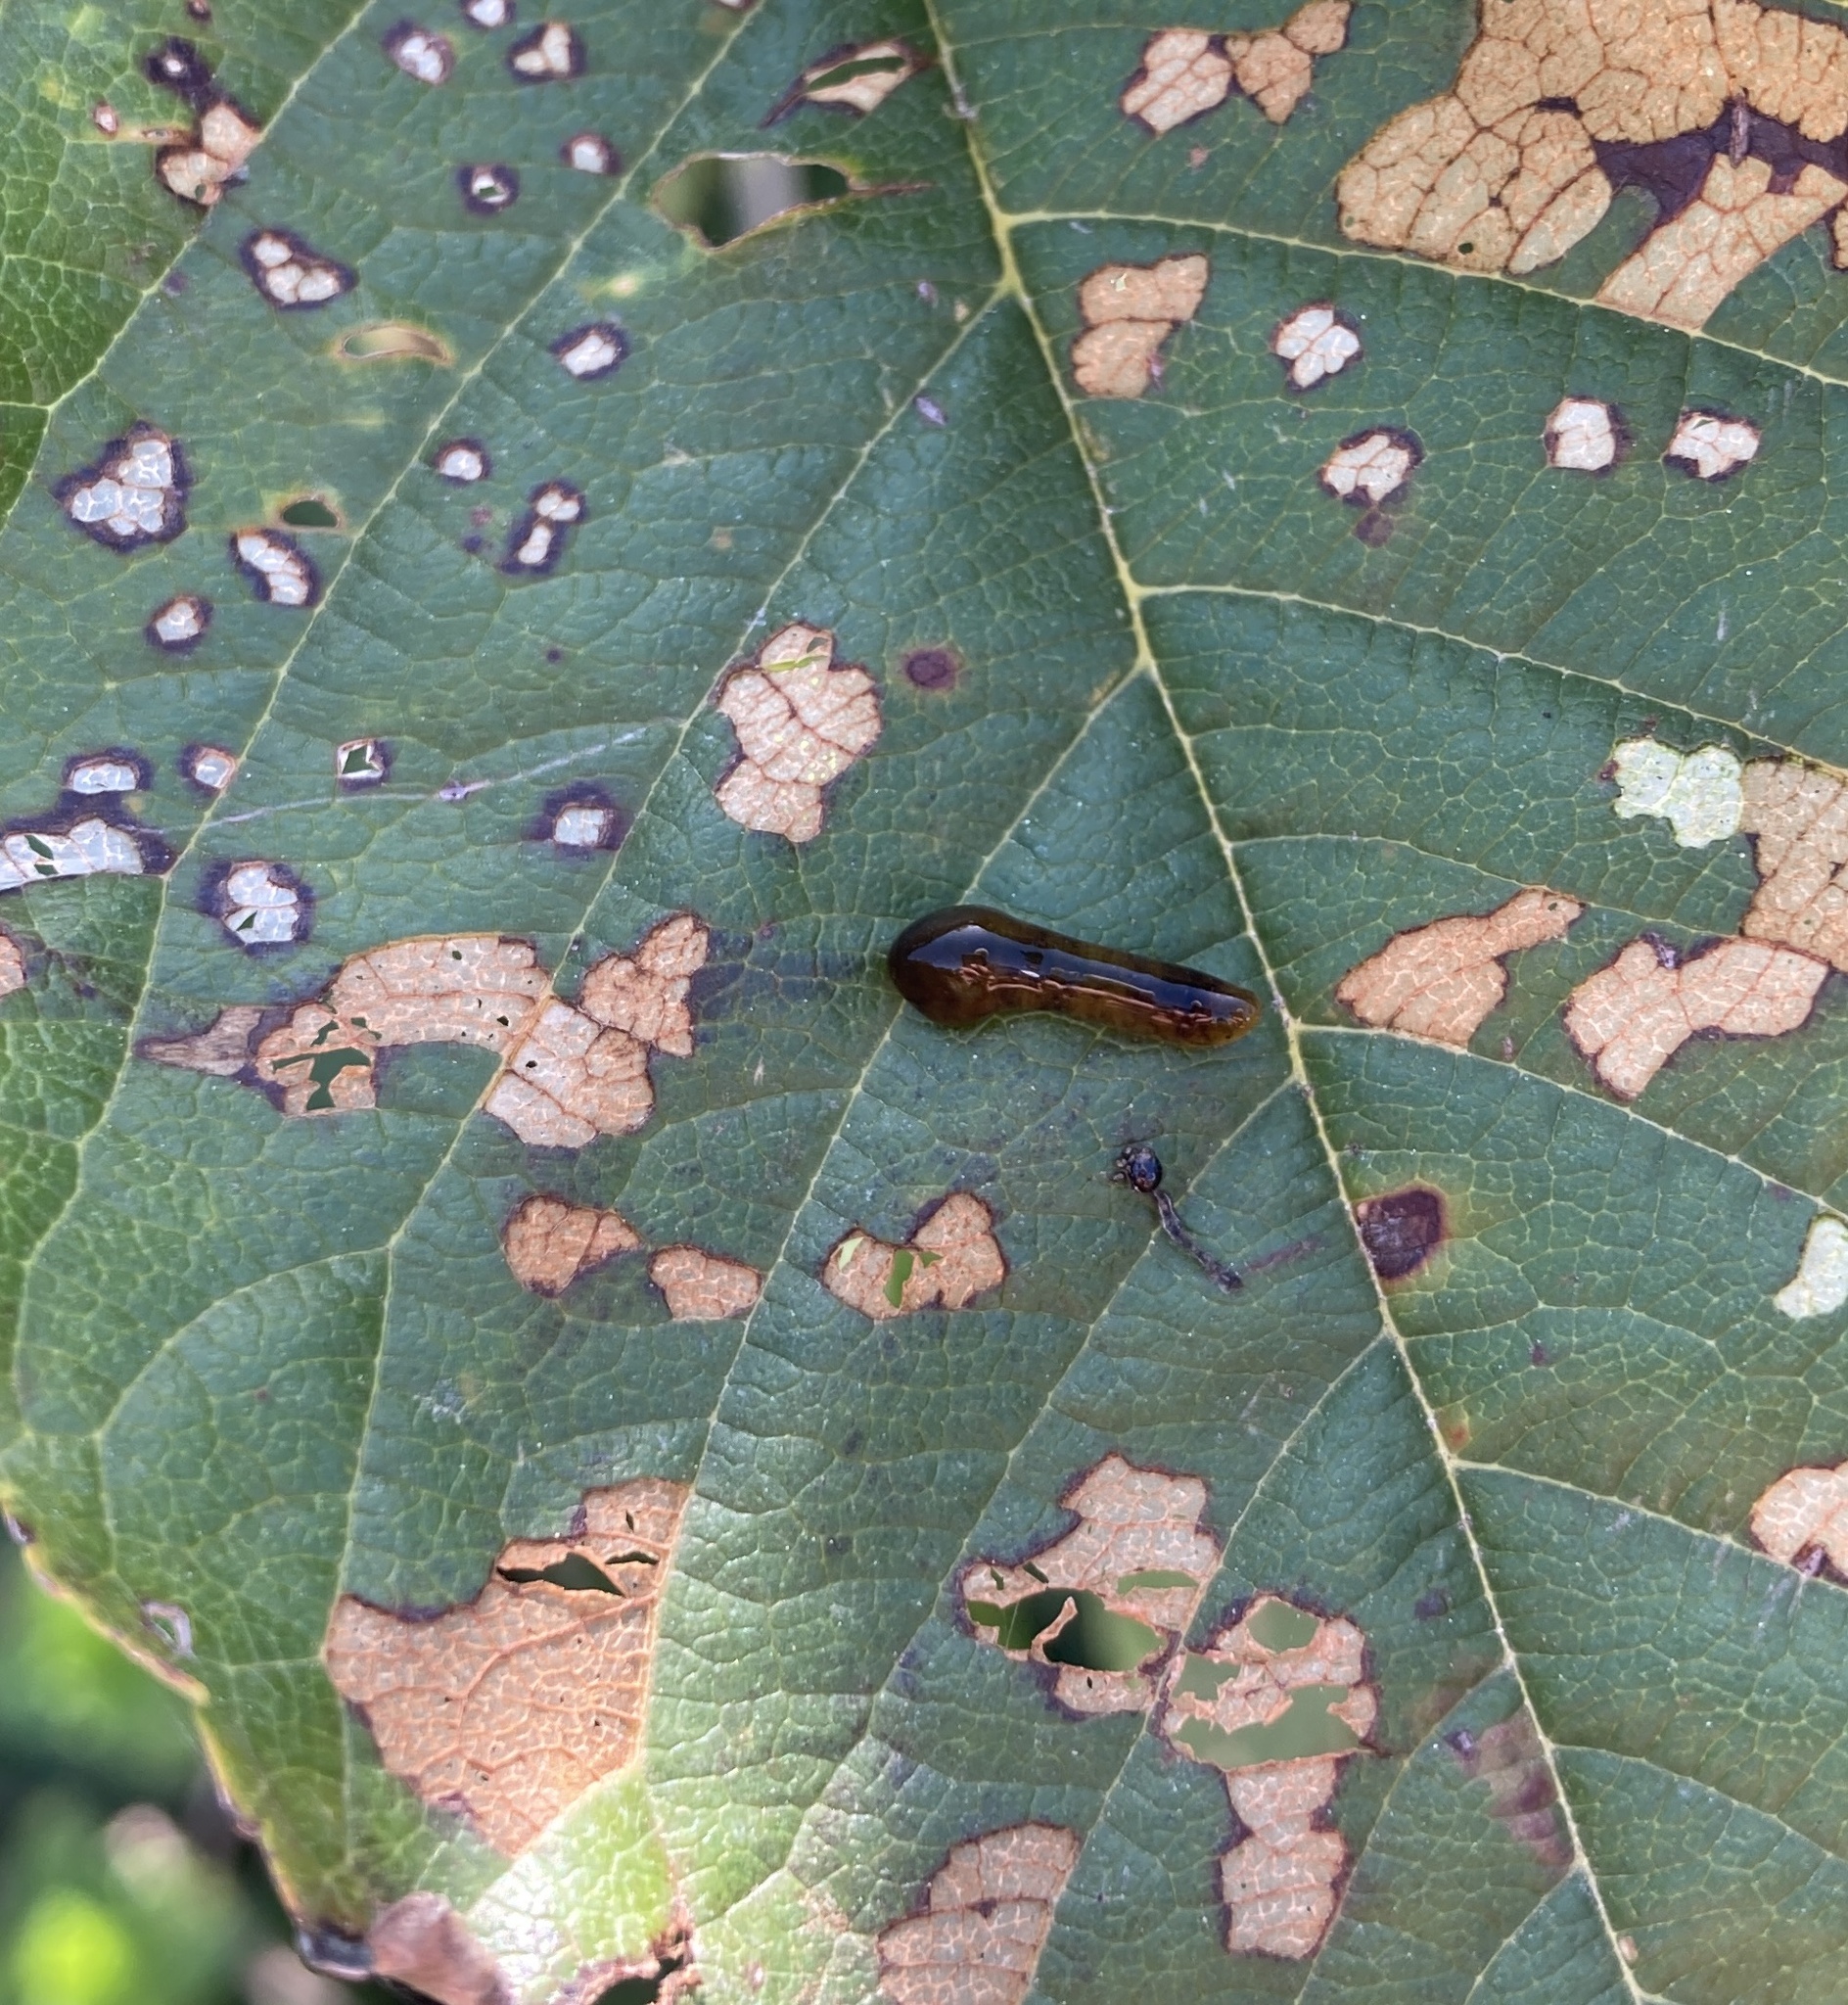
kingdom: Animalia
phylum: Arthropoda
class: Insecta
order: Hymenoptera
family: Tenthredinidae
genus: Caliroa
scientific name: Caliroa cerasi
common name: Pear sawfly
